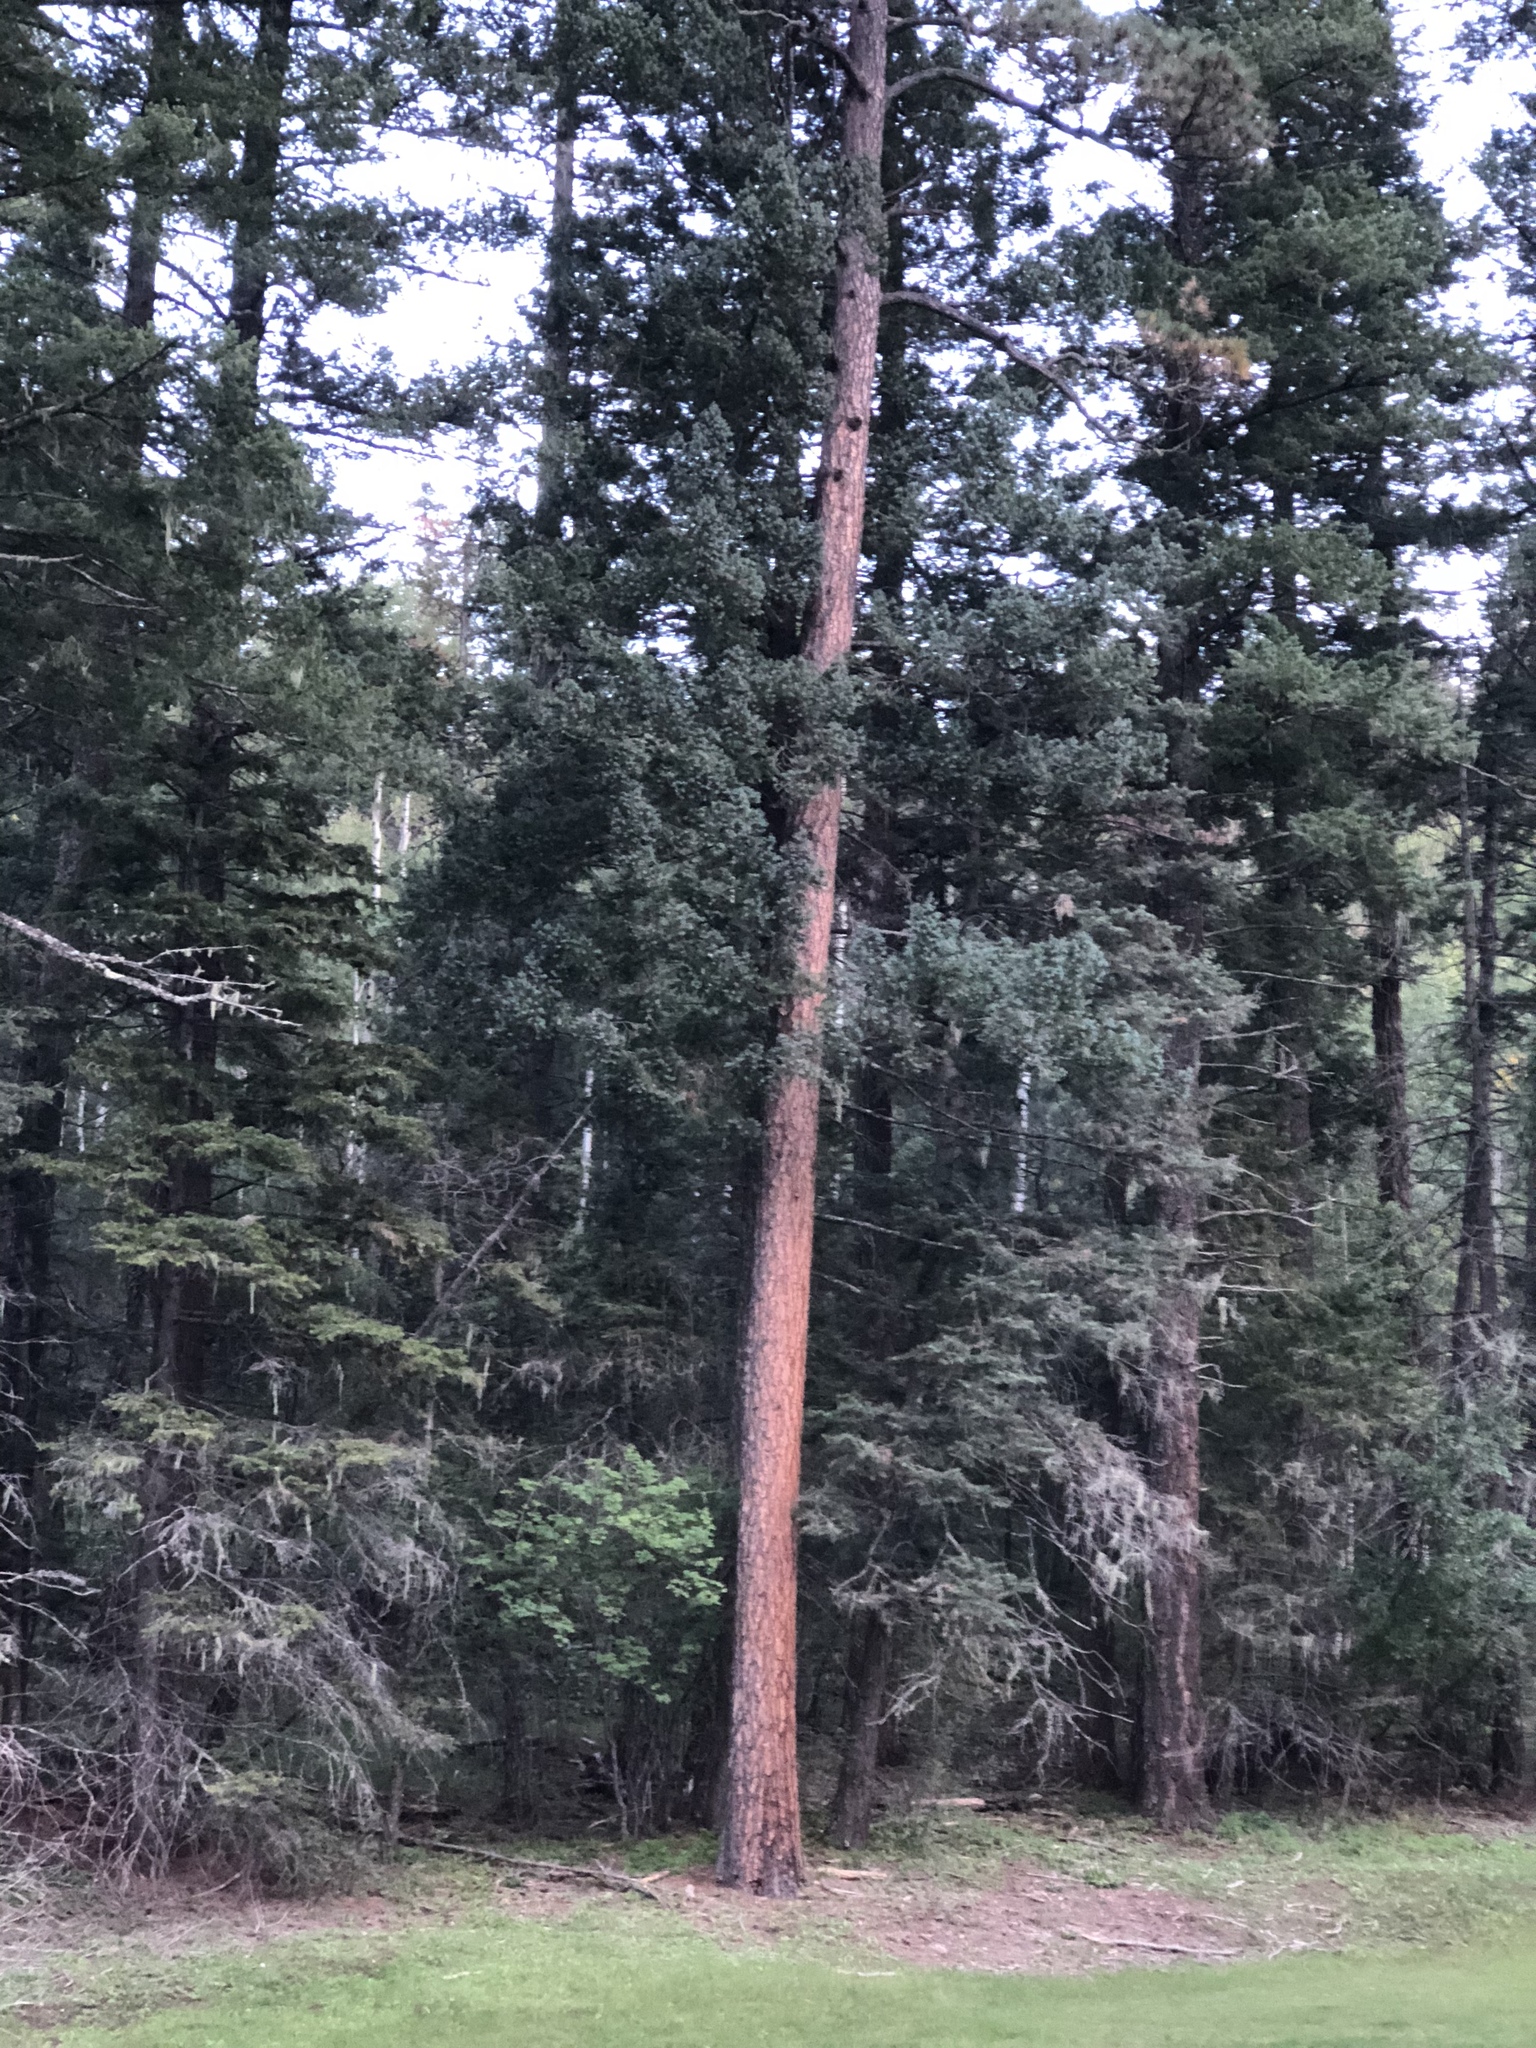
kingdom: Plantae
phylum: Tracheophyta
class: Pinopsida
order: Pinales
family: Pinaceae
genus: Pinus
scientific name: Pinus ponderosa
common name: Western yellow-pine
